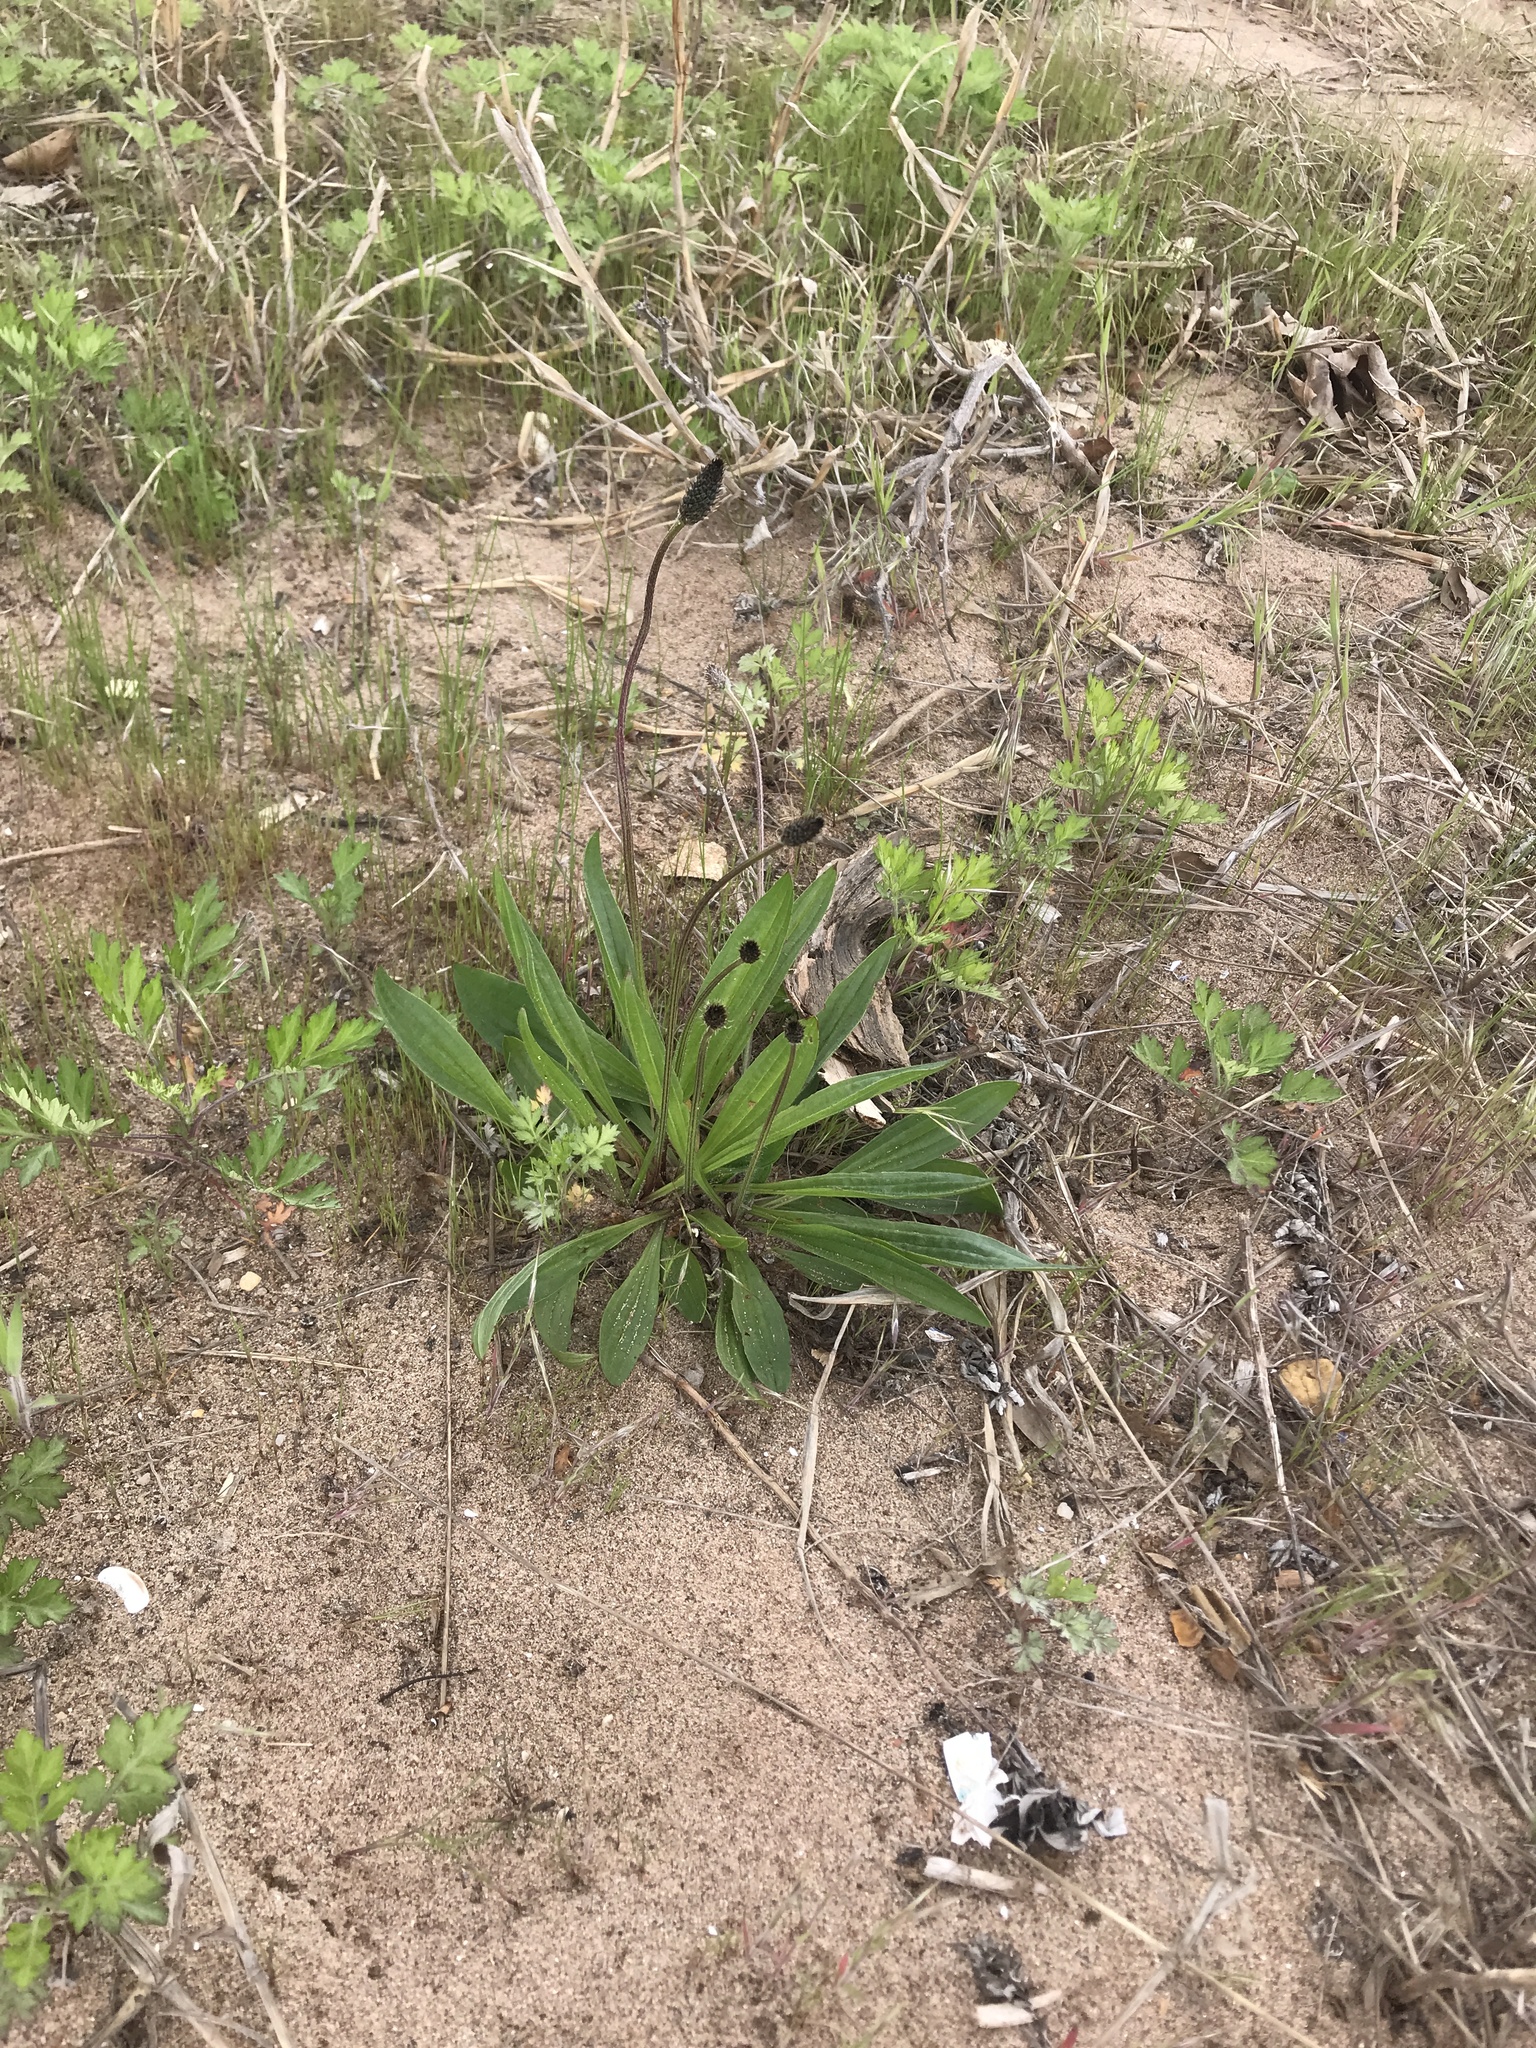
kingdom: Plantae
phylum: Tracheophyta
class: Magnoliopsida
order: Lamiales
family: Plantaginaceae
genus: Plantago
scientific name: Plantago lanceolata
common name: Ribwort plantain
